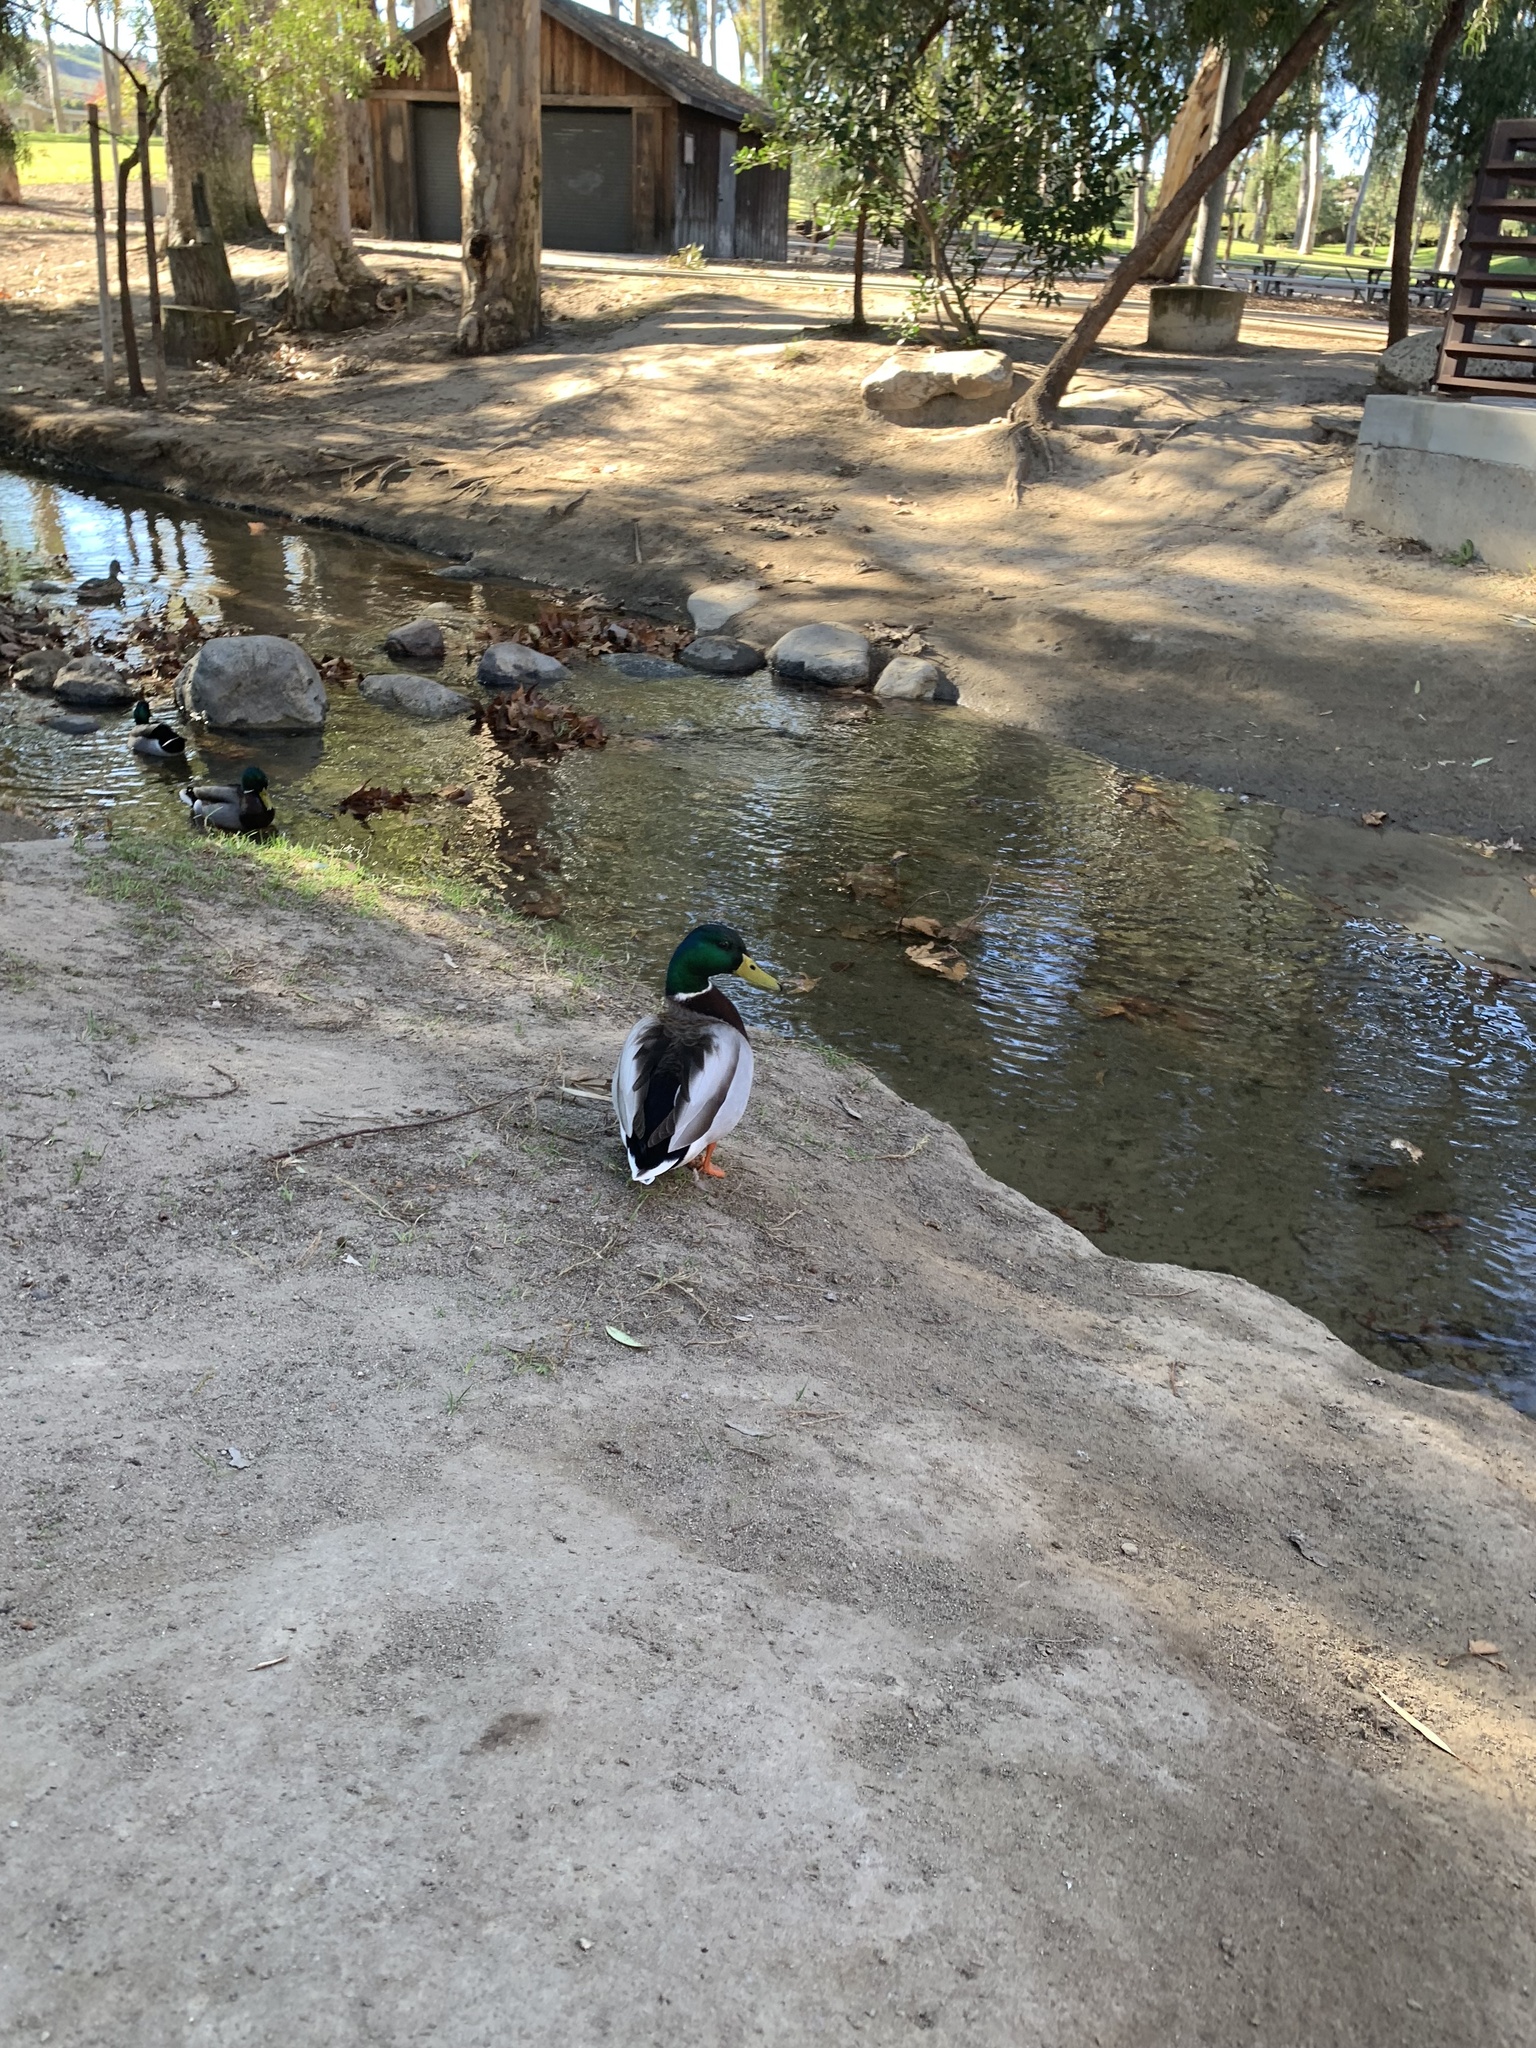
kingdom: Animalia
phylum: Chordata
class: Aves
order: Anseriformes
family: Anatidae
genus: Anas
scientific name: Anas platyrhynchos
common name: Mallard
